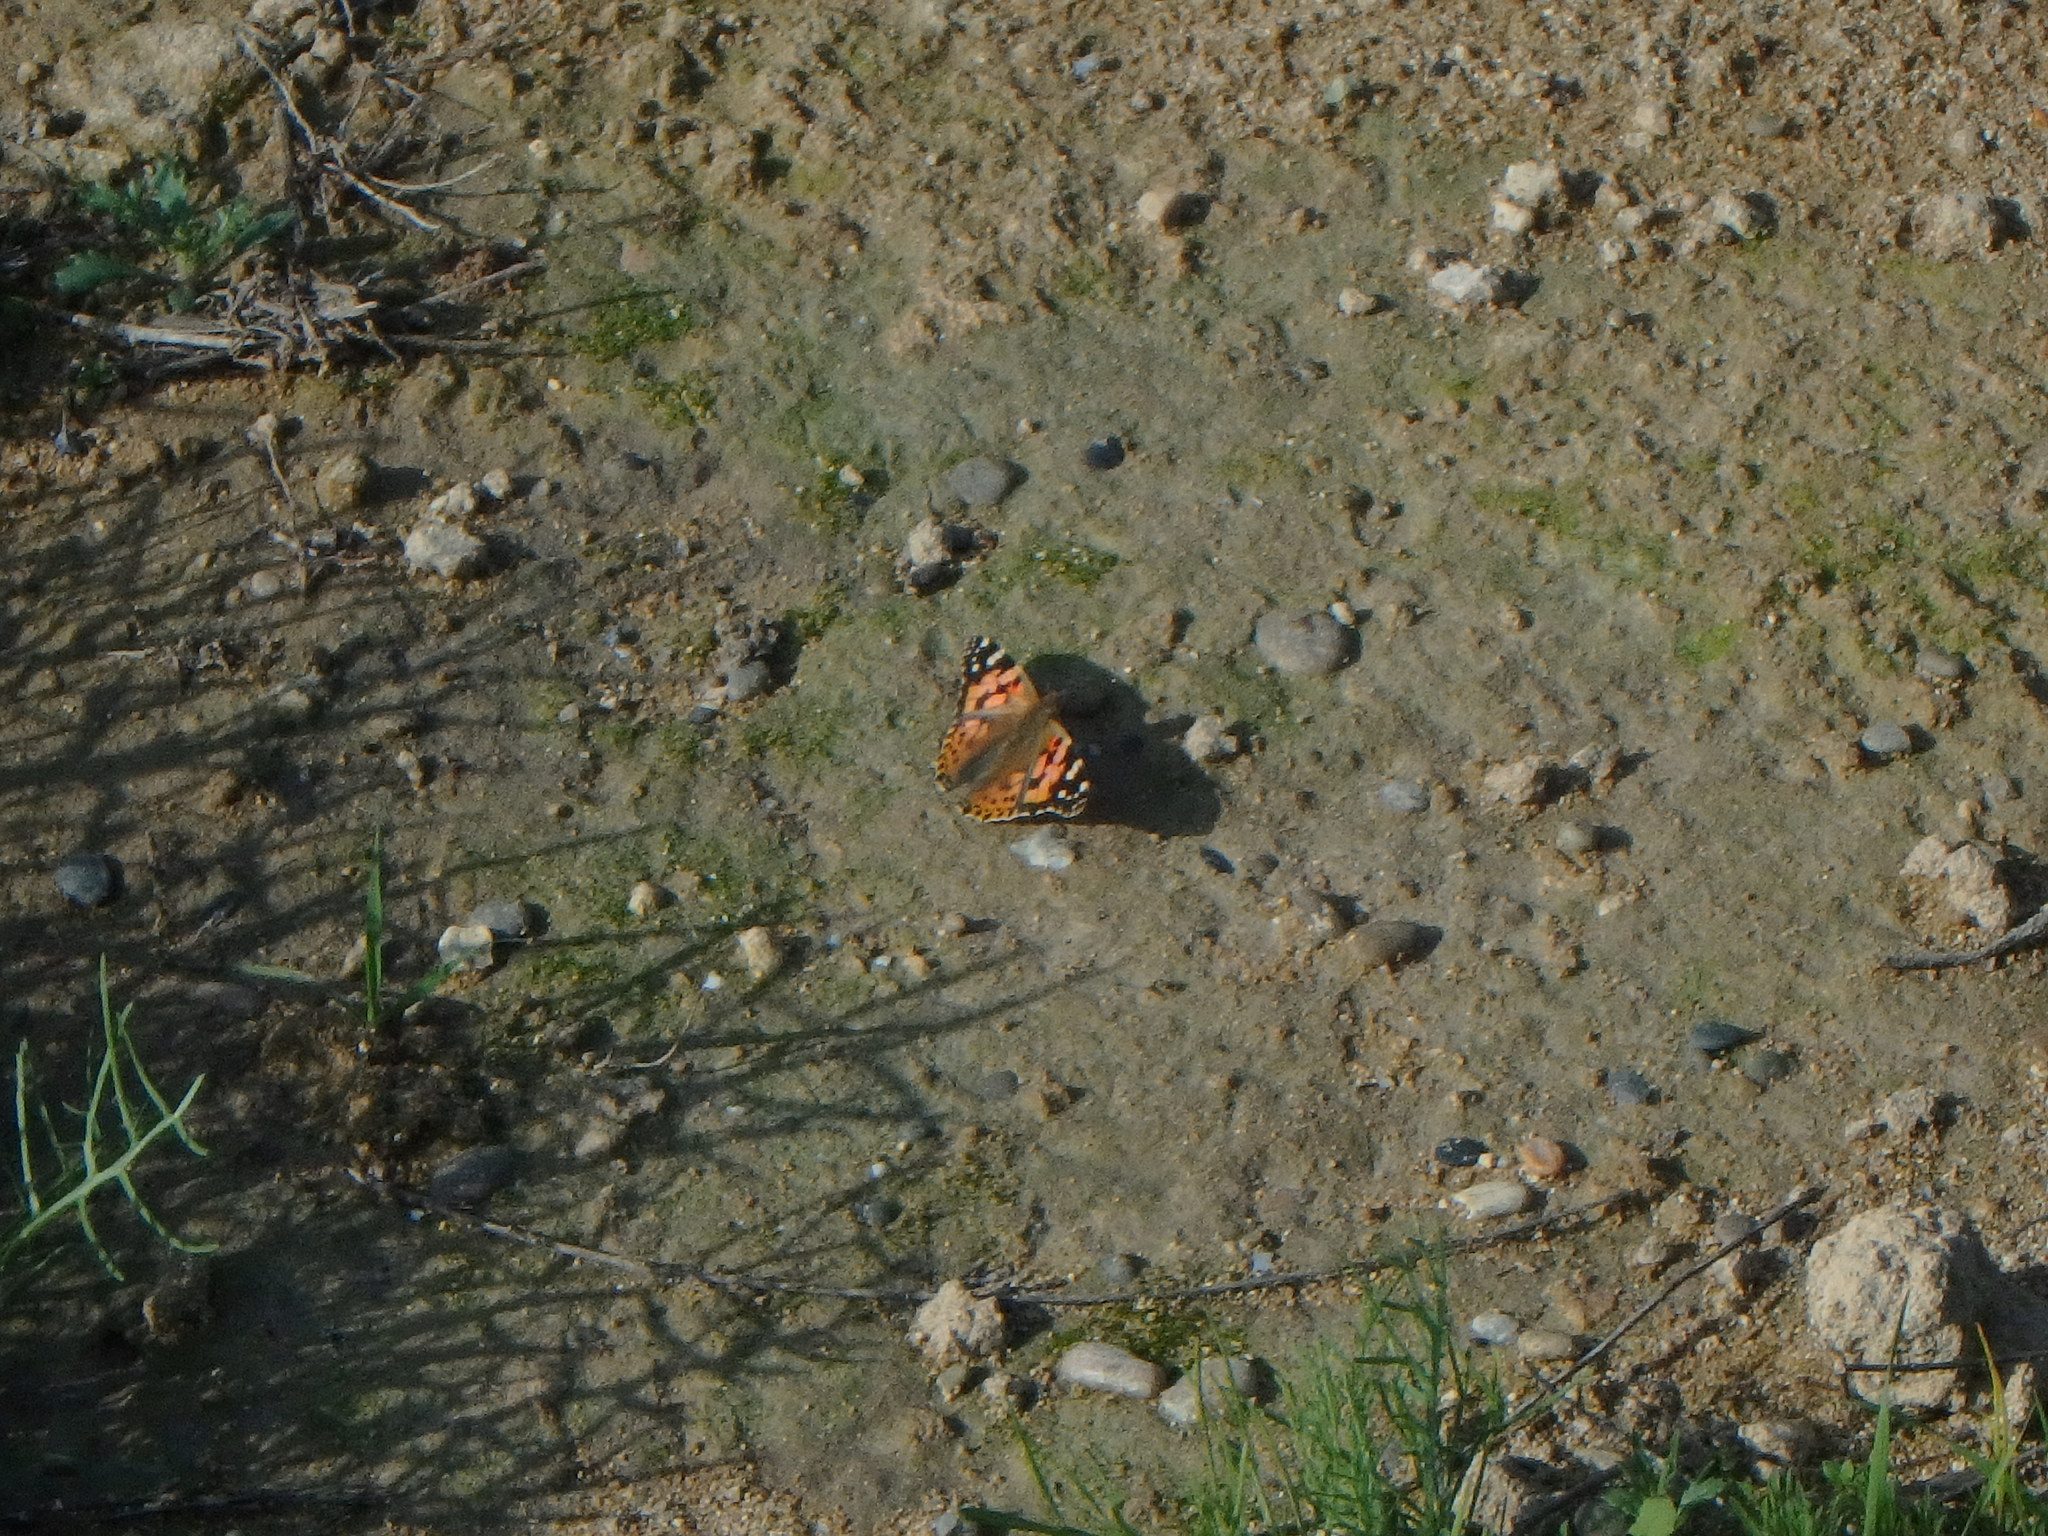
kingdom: Animalia
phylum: Arthropoda
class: Insecta
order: Lepidoptera
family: Nymphalidae
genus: Vanessa
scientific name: Vanessa cardui
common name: Painted lady
